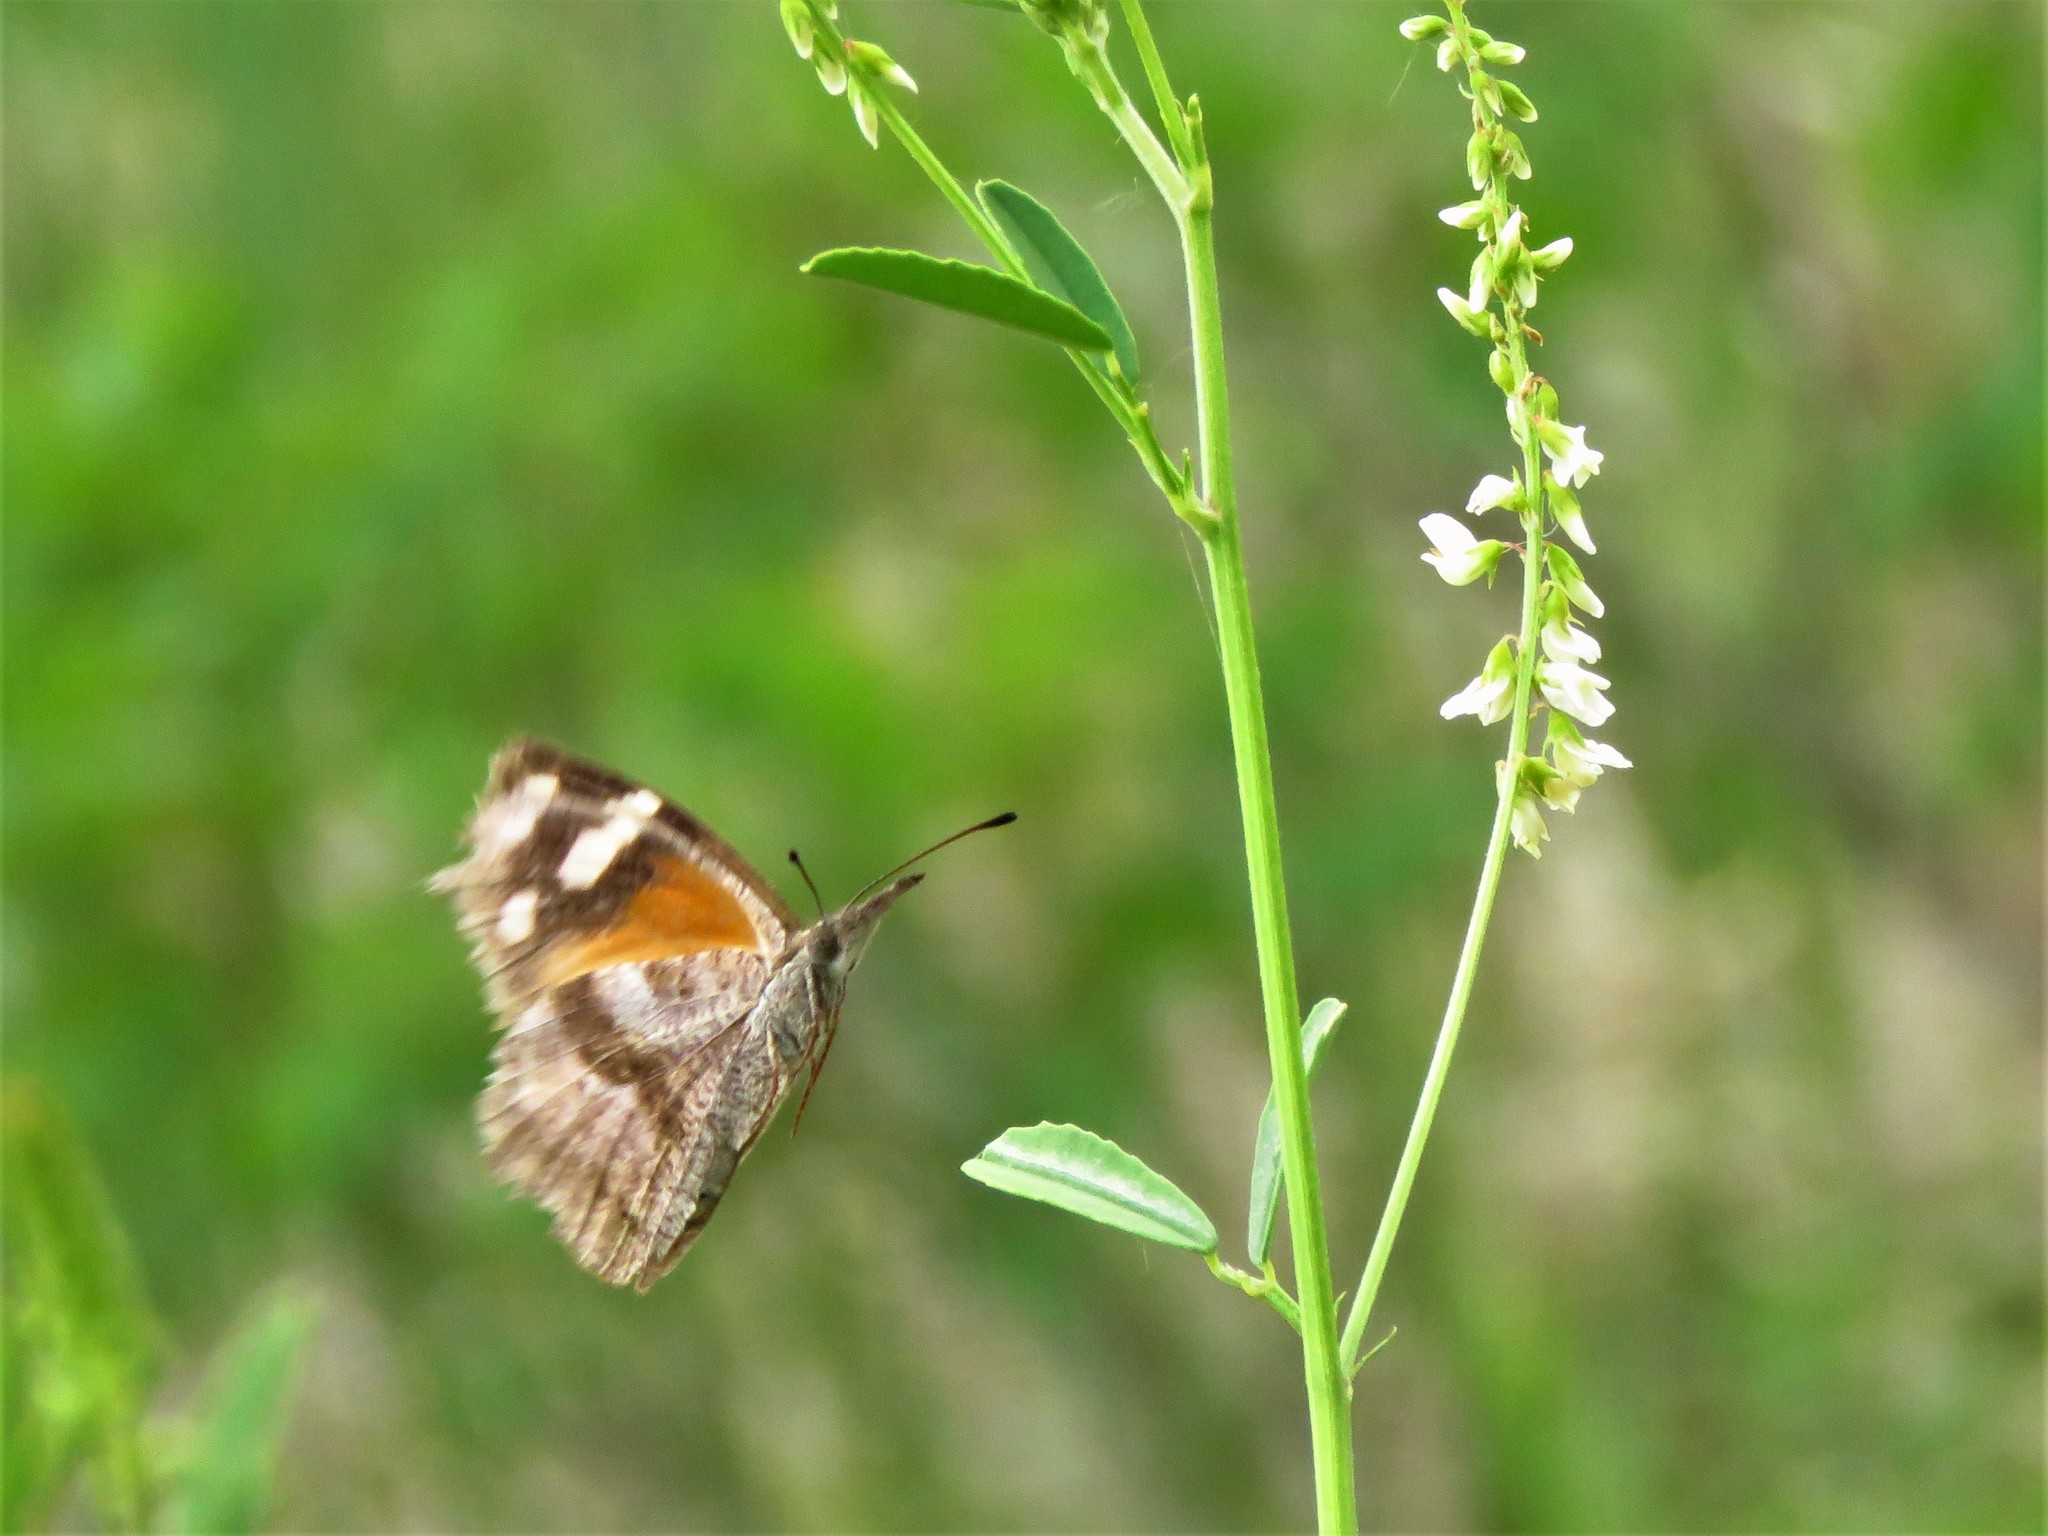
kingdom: Animalia
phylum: Arthropoda
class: Insecta
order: Lepidoptera
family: Nymphalidae
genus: Libytheana
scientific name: Libytheana carinenta
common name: American snout
